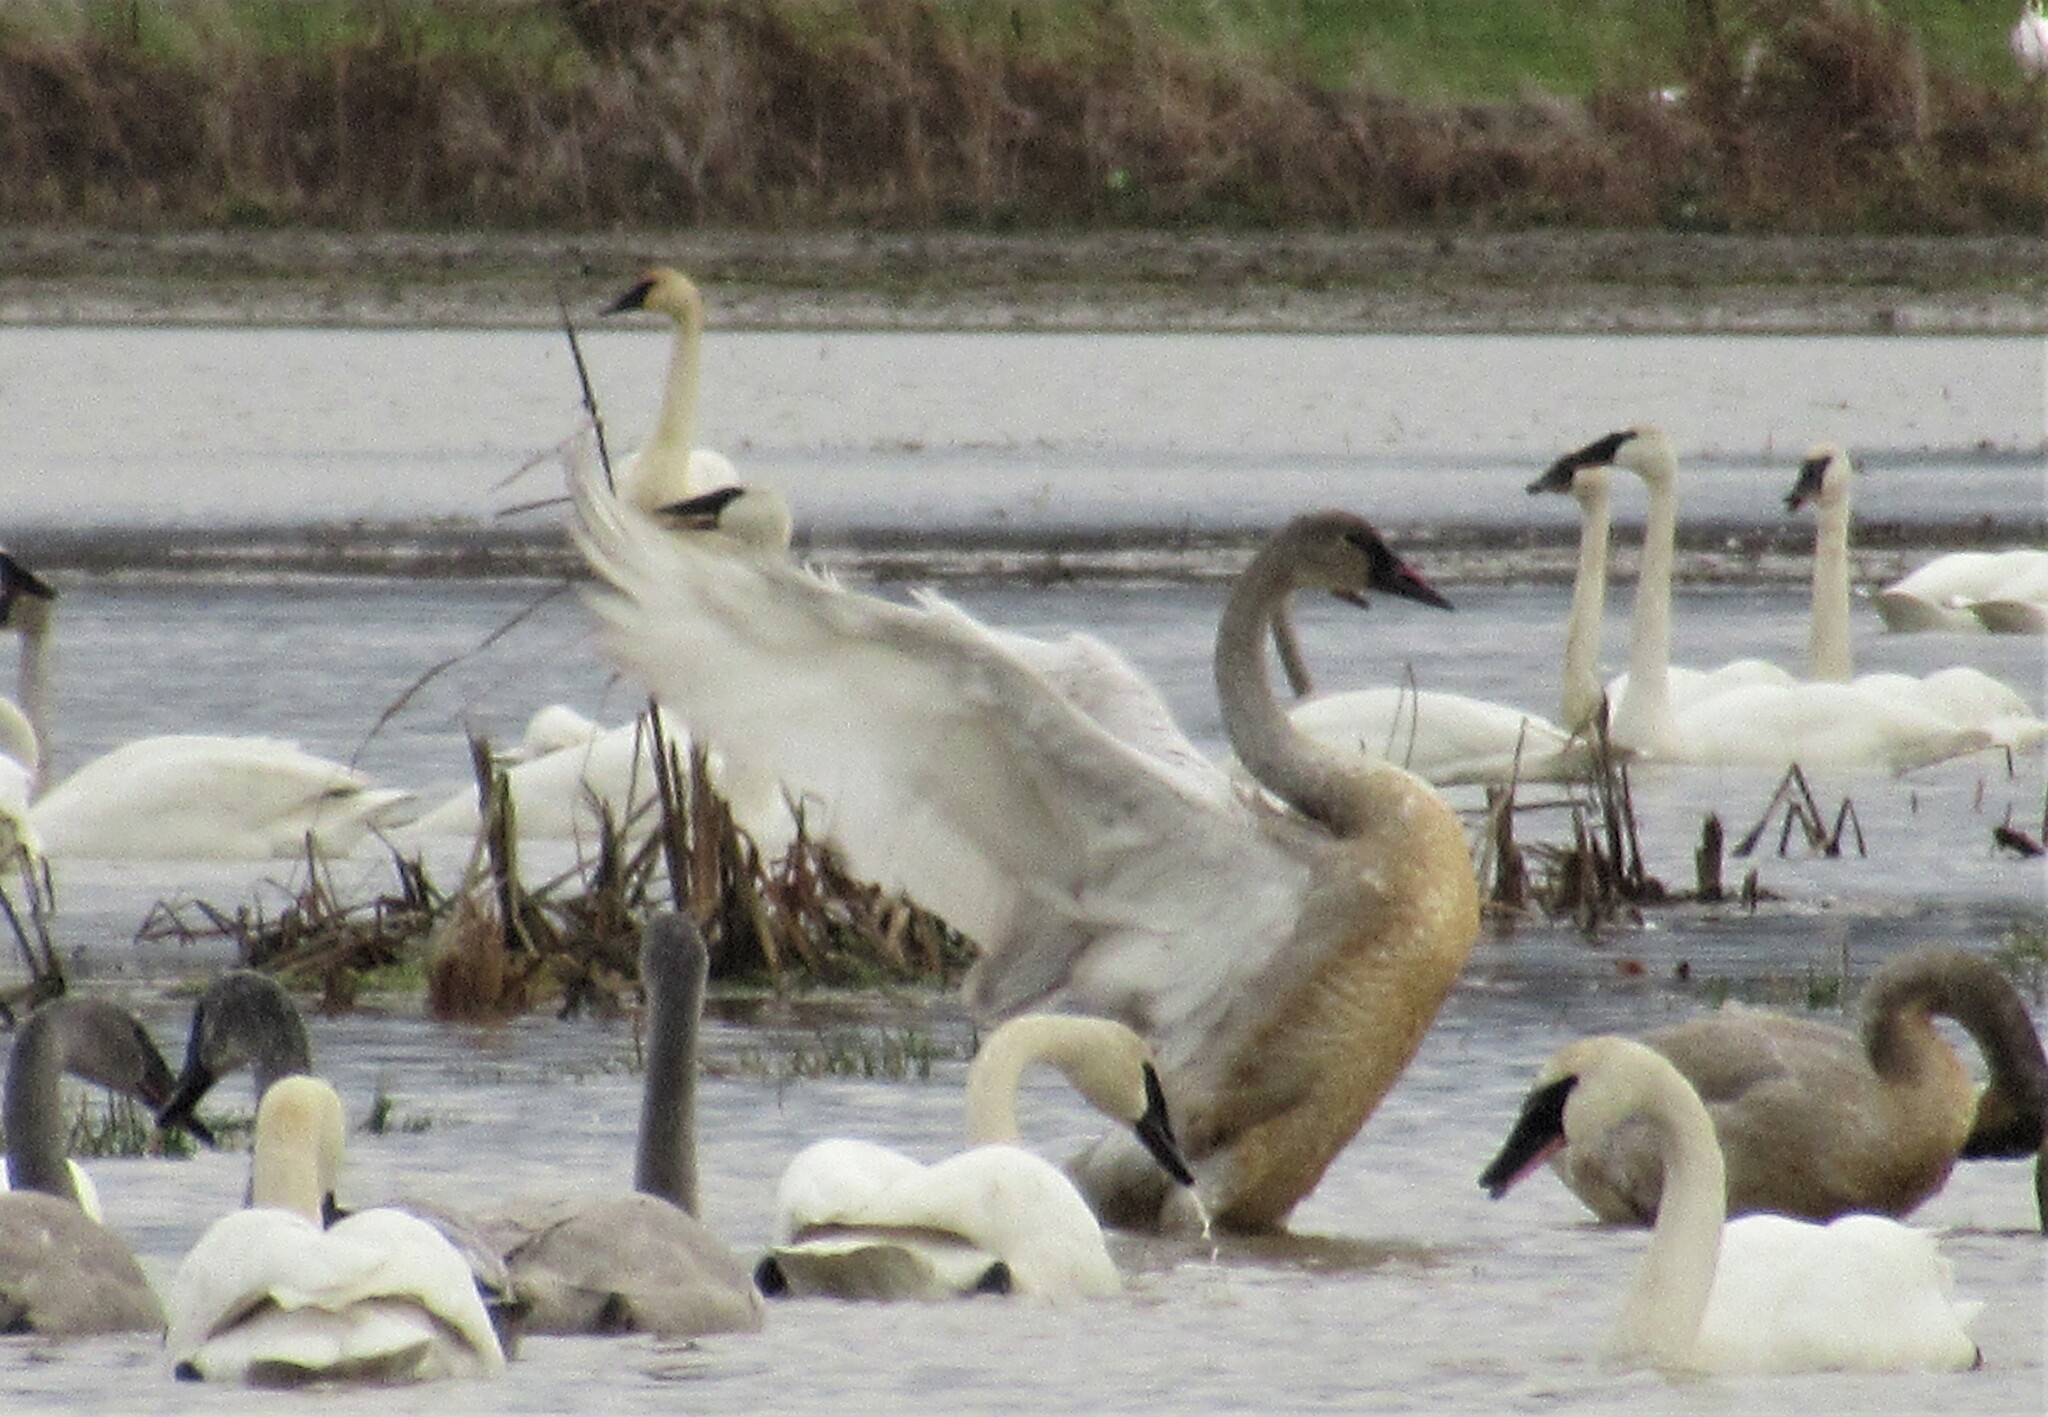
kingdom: Animalia
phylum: Chordata
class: Aves
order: Anseriformes
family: Anatidae
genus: Cygnus
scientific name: Cygnus buccinator
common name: Trumpeter swan
